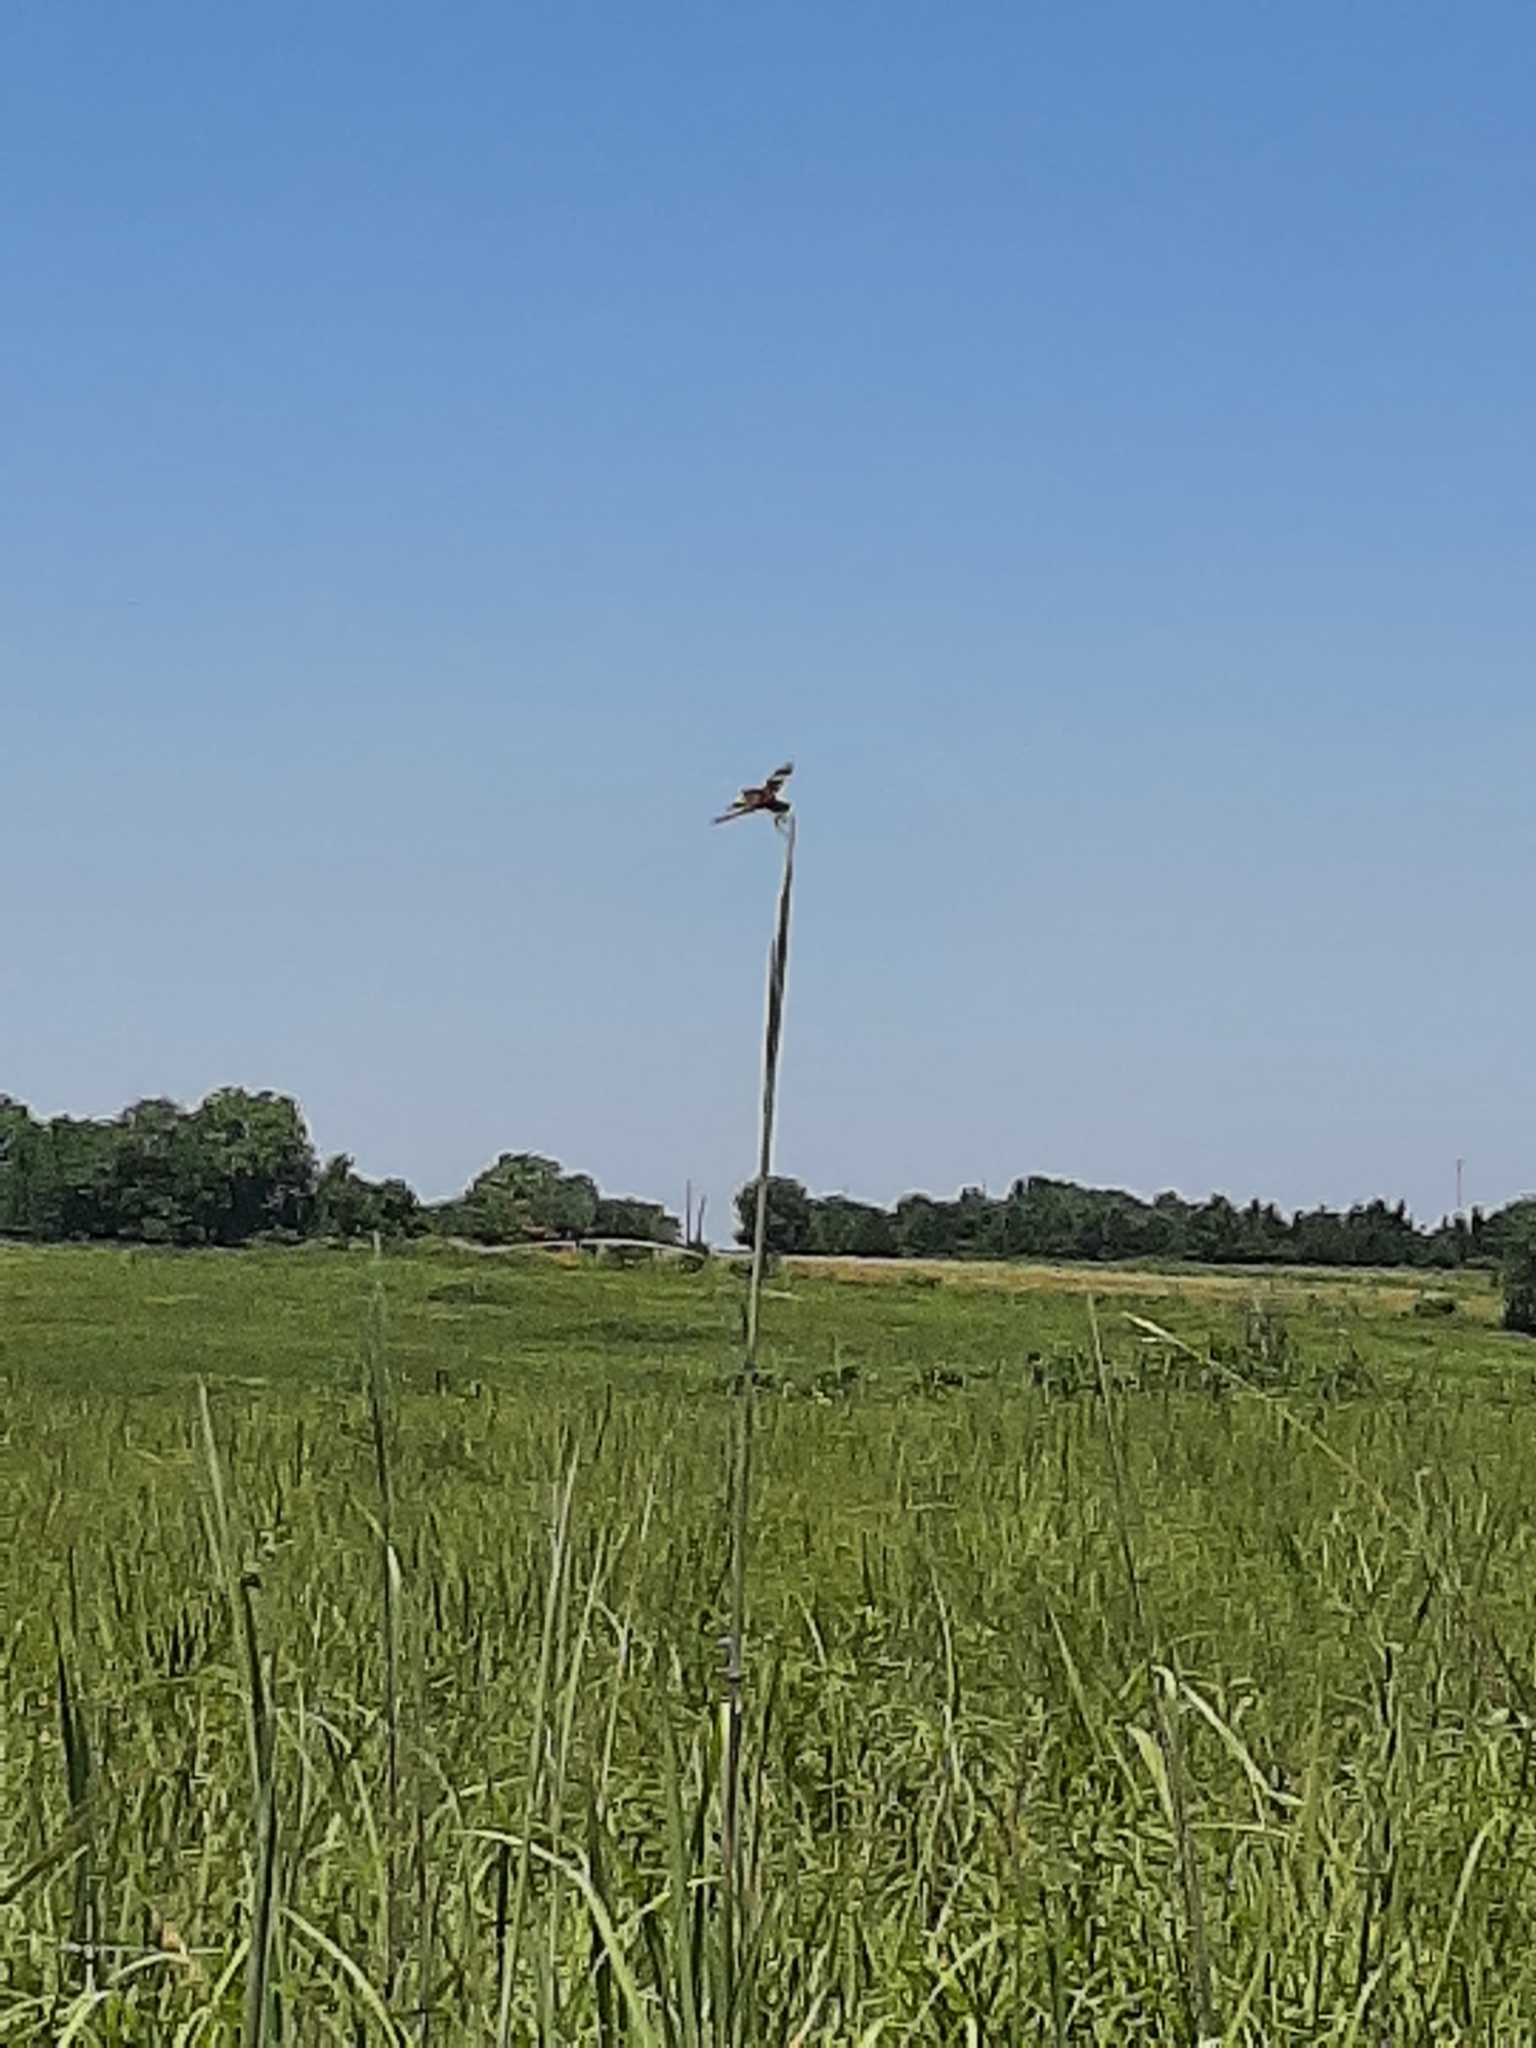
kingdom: Animalia
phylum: Arthropoda
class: Insecta
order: Odonata
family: Libellulidae
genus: Celithemis
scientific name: Celithemis eponina
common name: Halloween pennant
